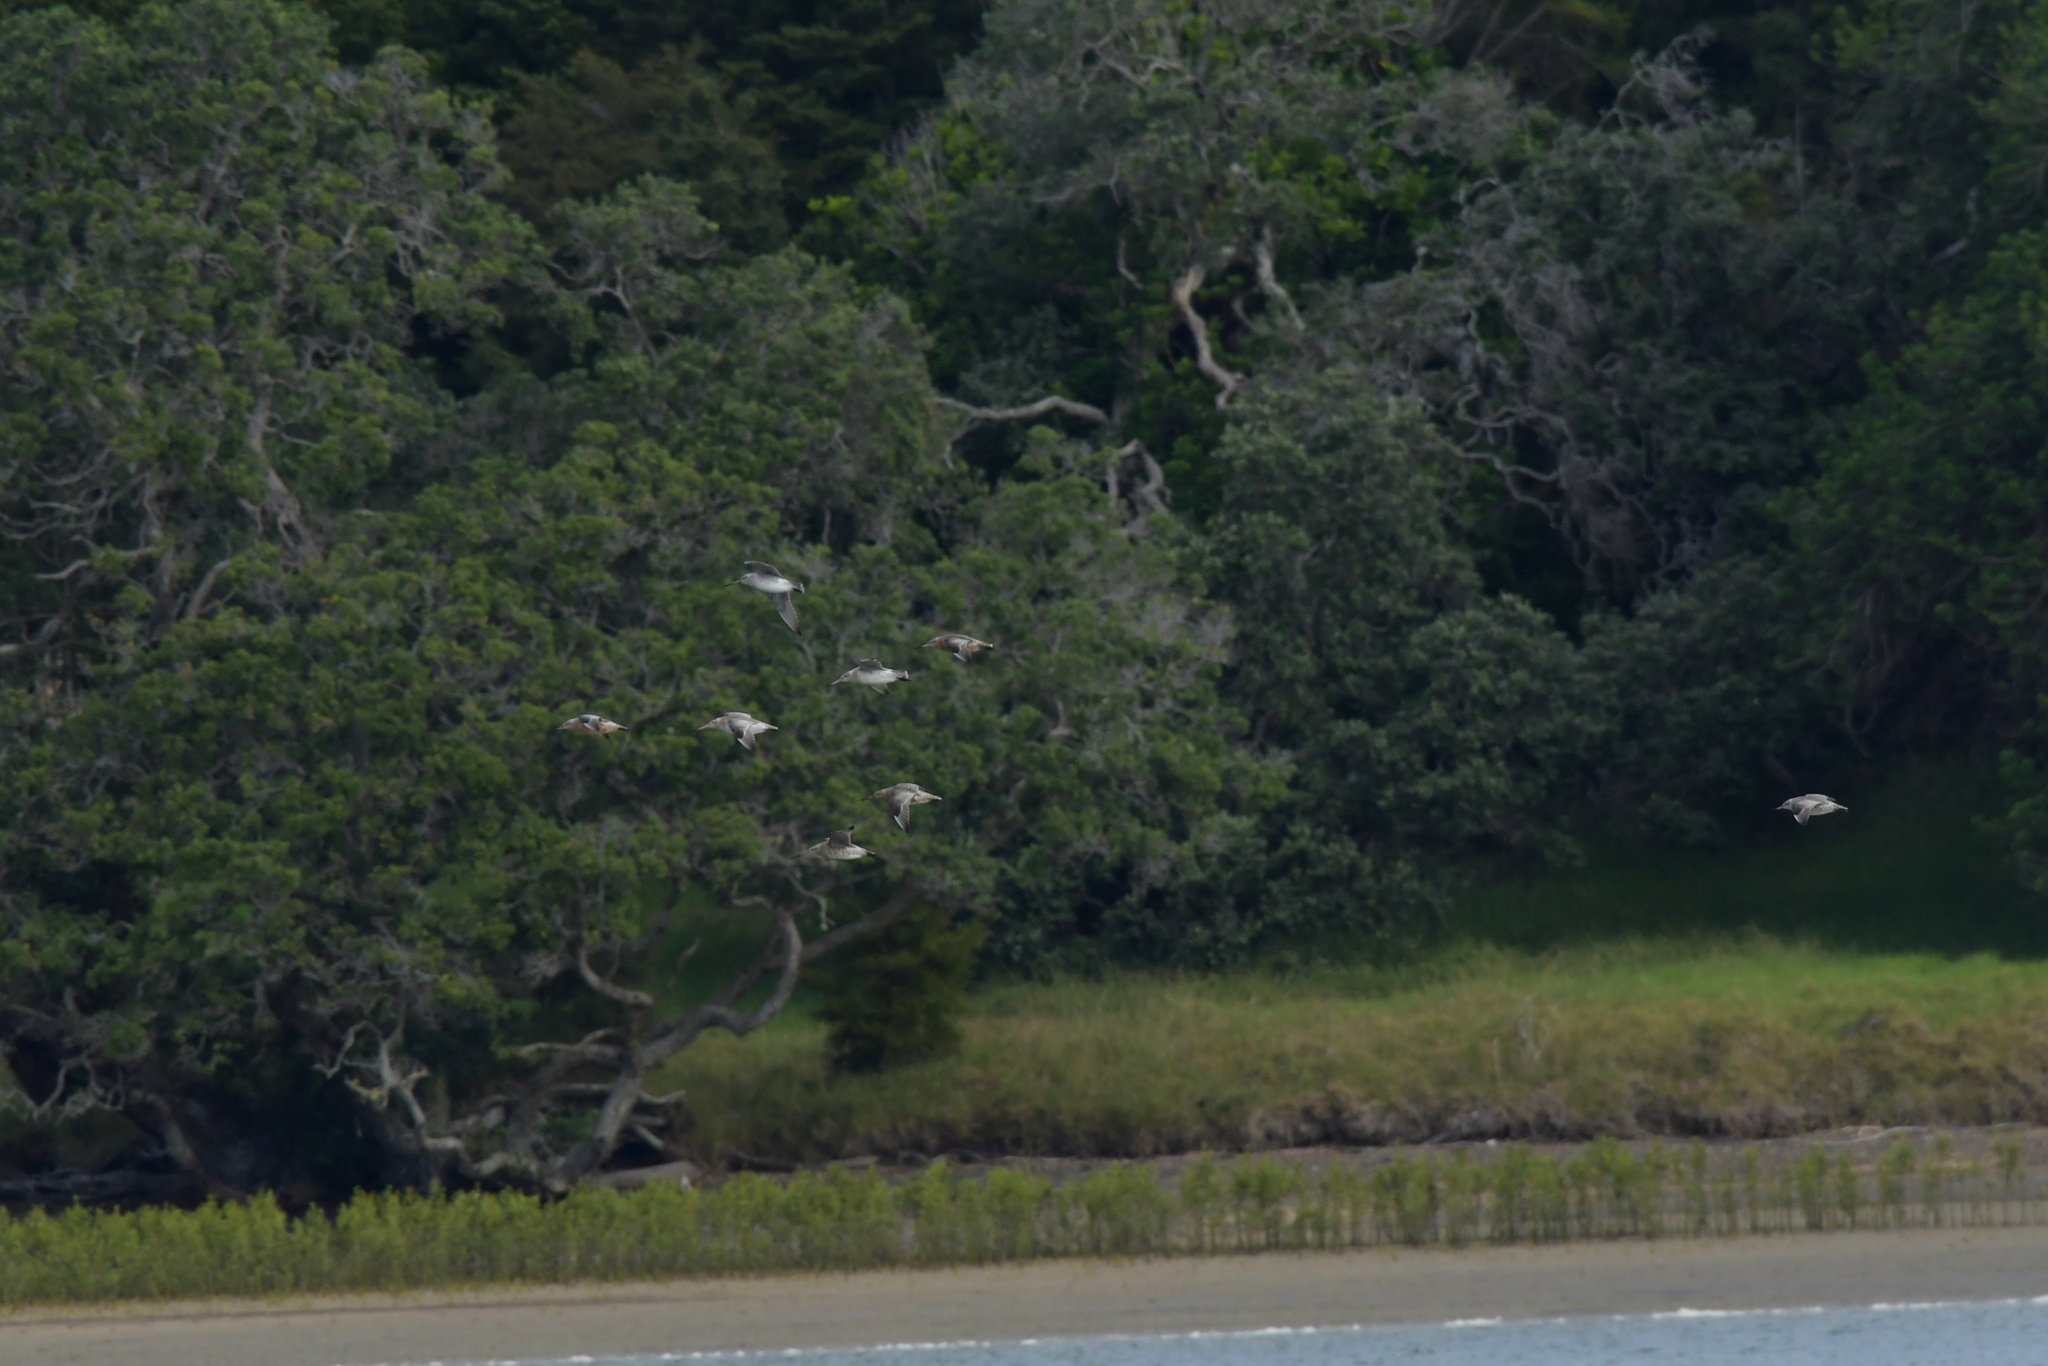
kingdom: Animalia
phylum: Chordata
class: Aves
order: Charadriiformes
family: Scolopacidae
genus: Limosa
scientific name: Limosa lapponica
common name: Bar-tailed godwit
